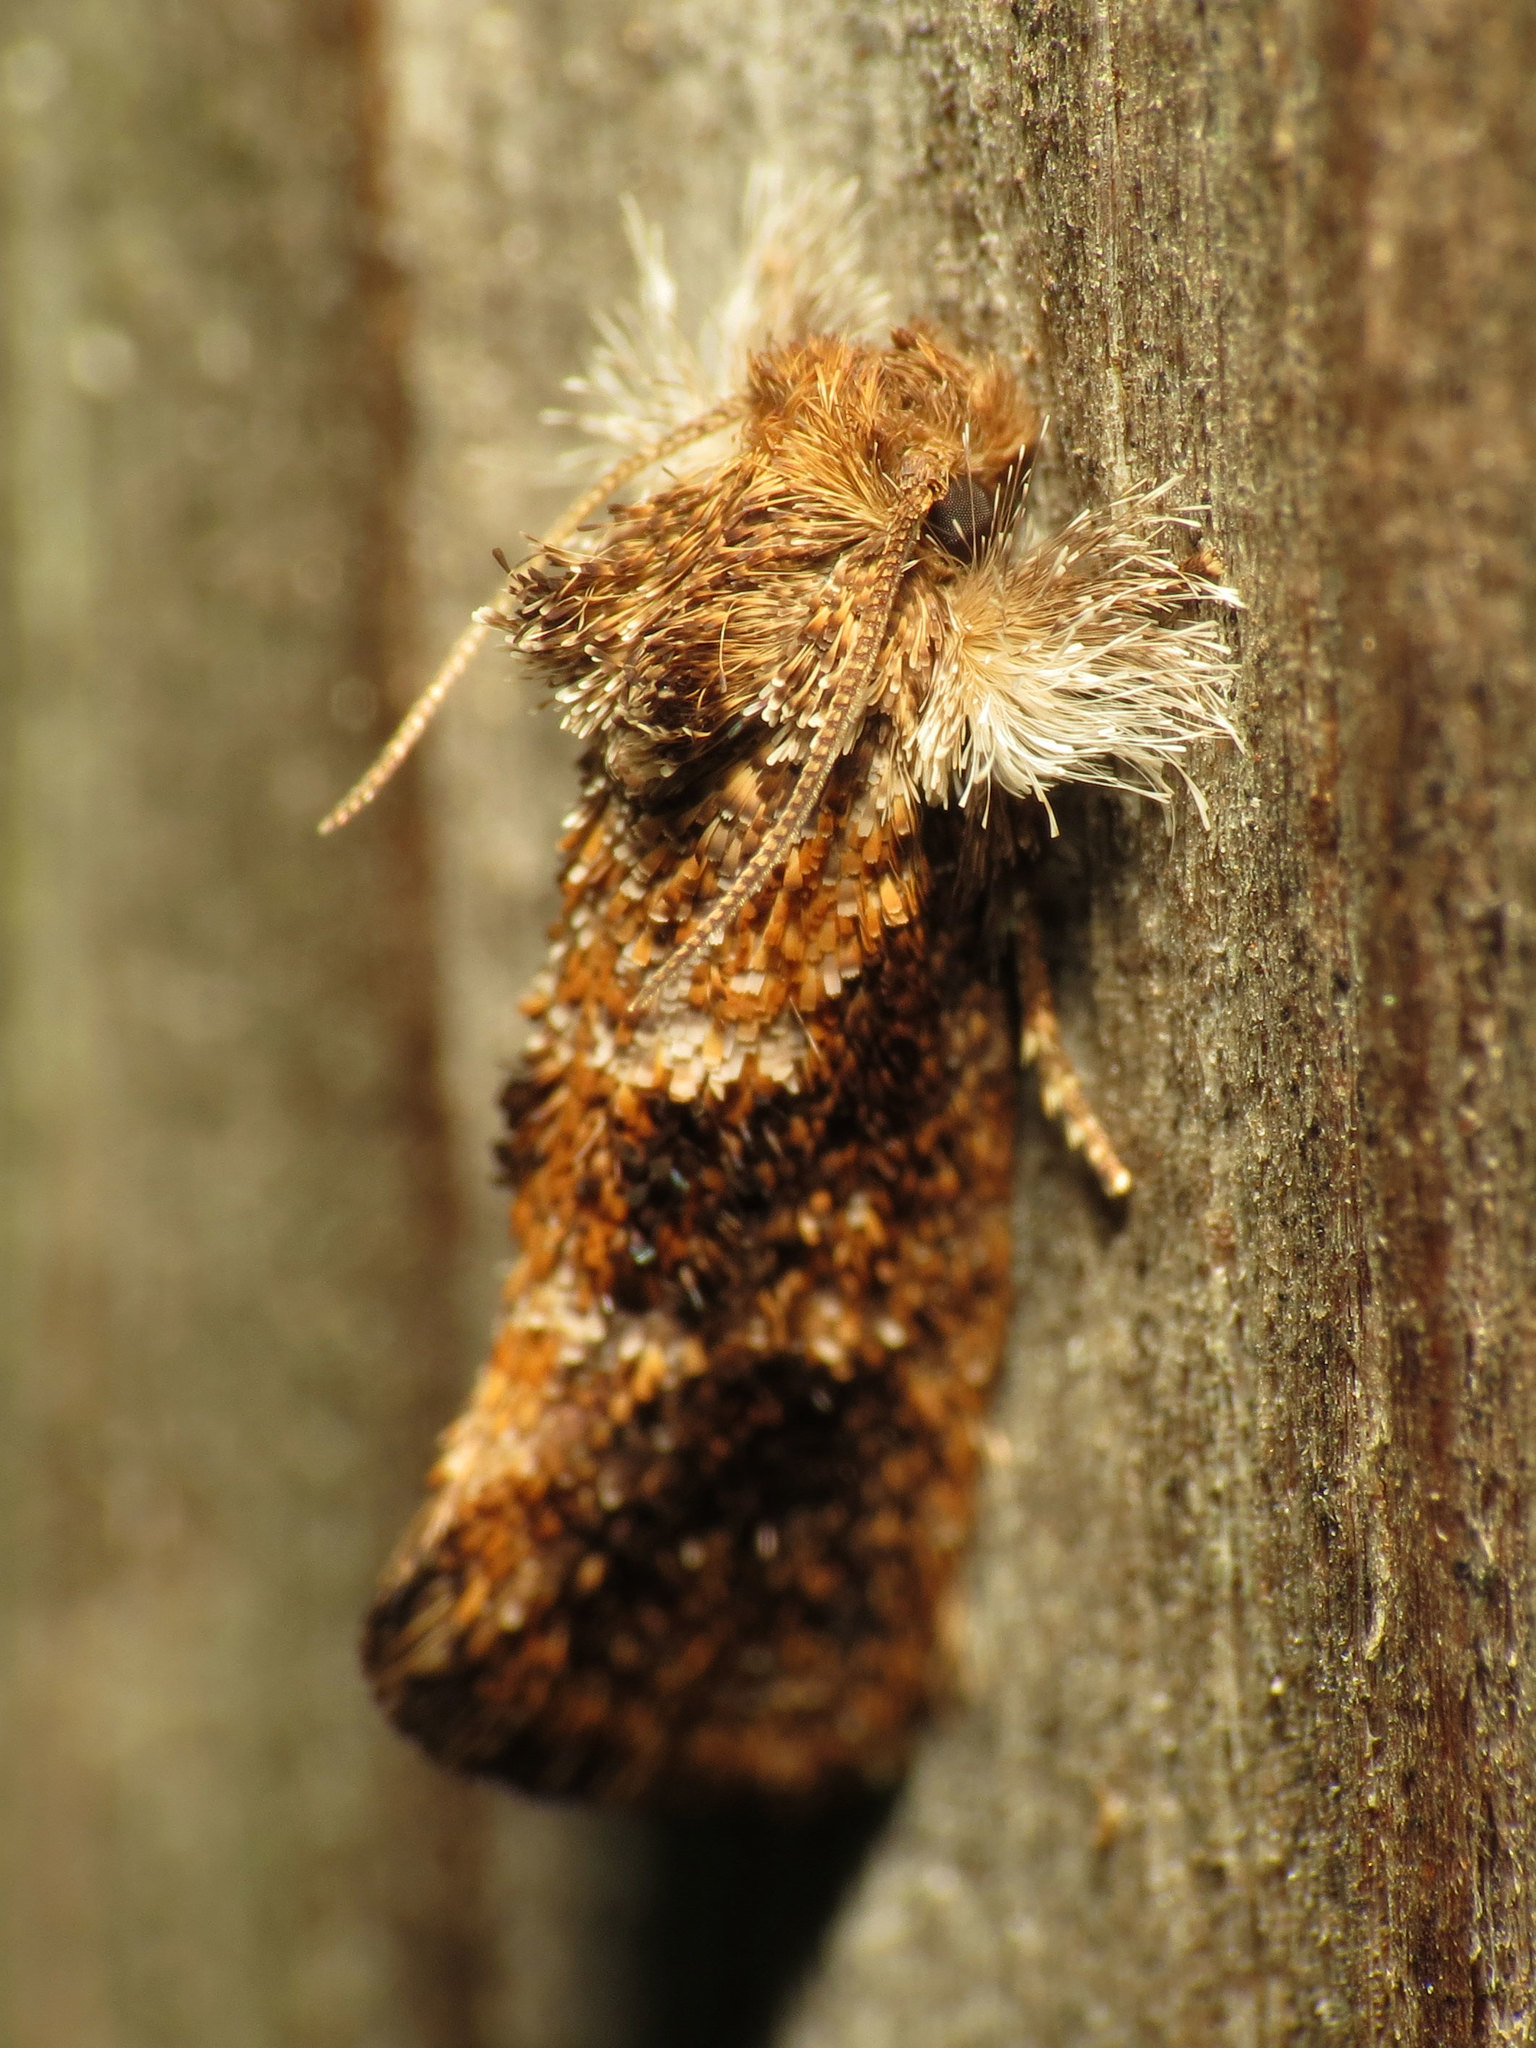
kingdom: Animalia
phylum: Arthropoda
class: Insecta
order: Lepidoptera
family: Tineidae
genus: Acrolophus
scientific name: Acrolophus panamae
